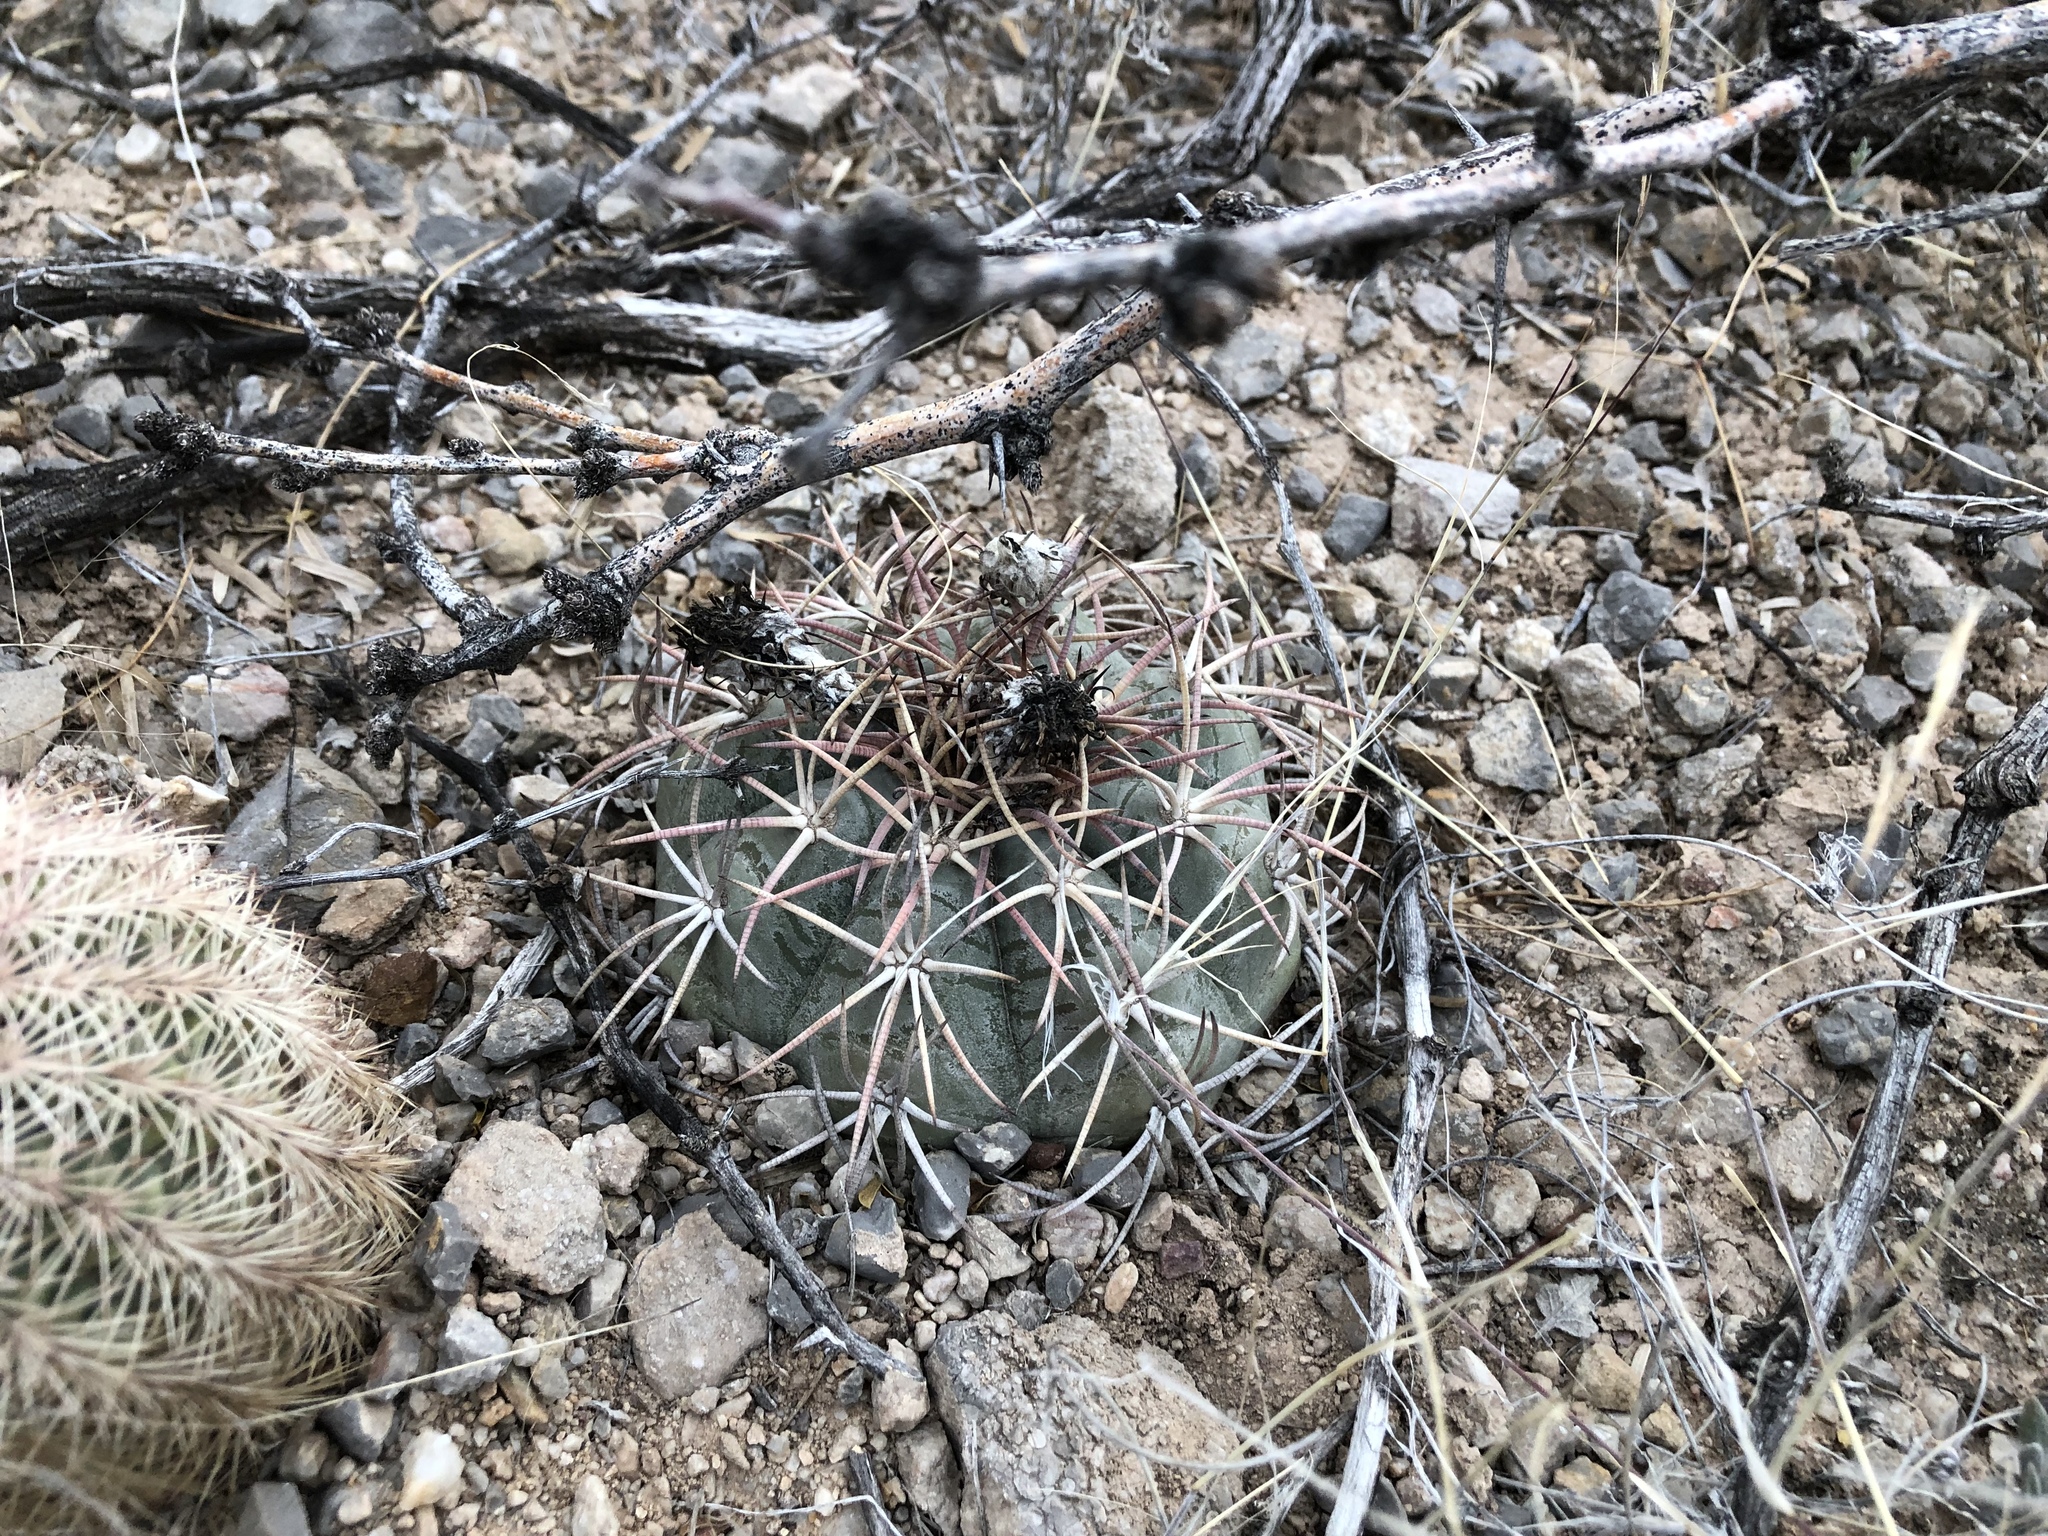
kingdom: Plantae
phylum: Tracheophyta
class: Magnoliopsida
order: Caryophyllales
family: Cactaceae
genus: Echinocactus
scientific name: Echinocactus horizonthalonius
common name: Devilshead
